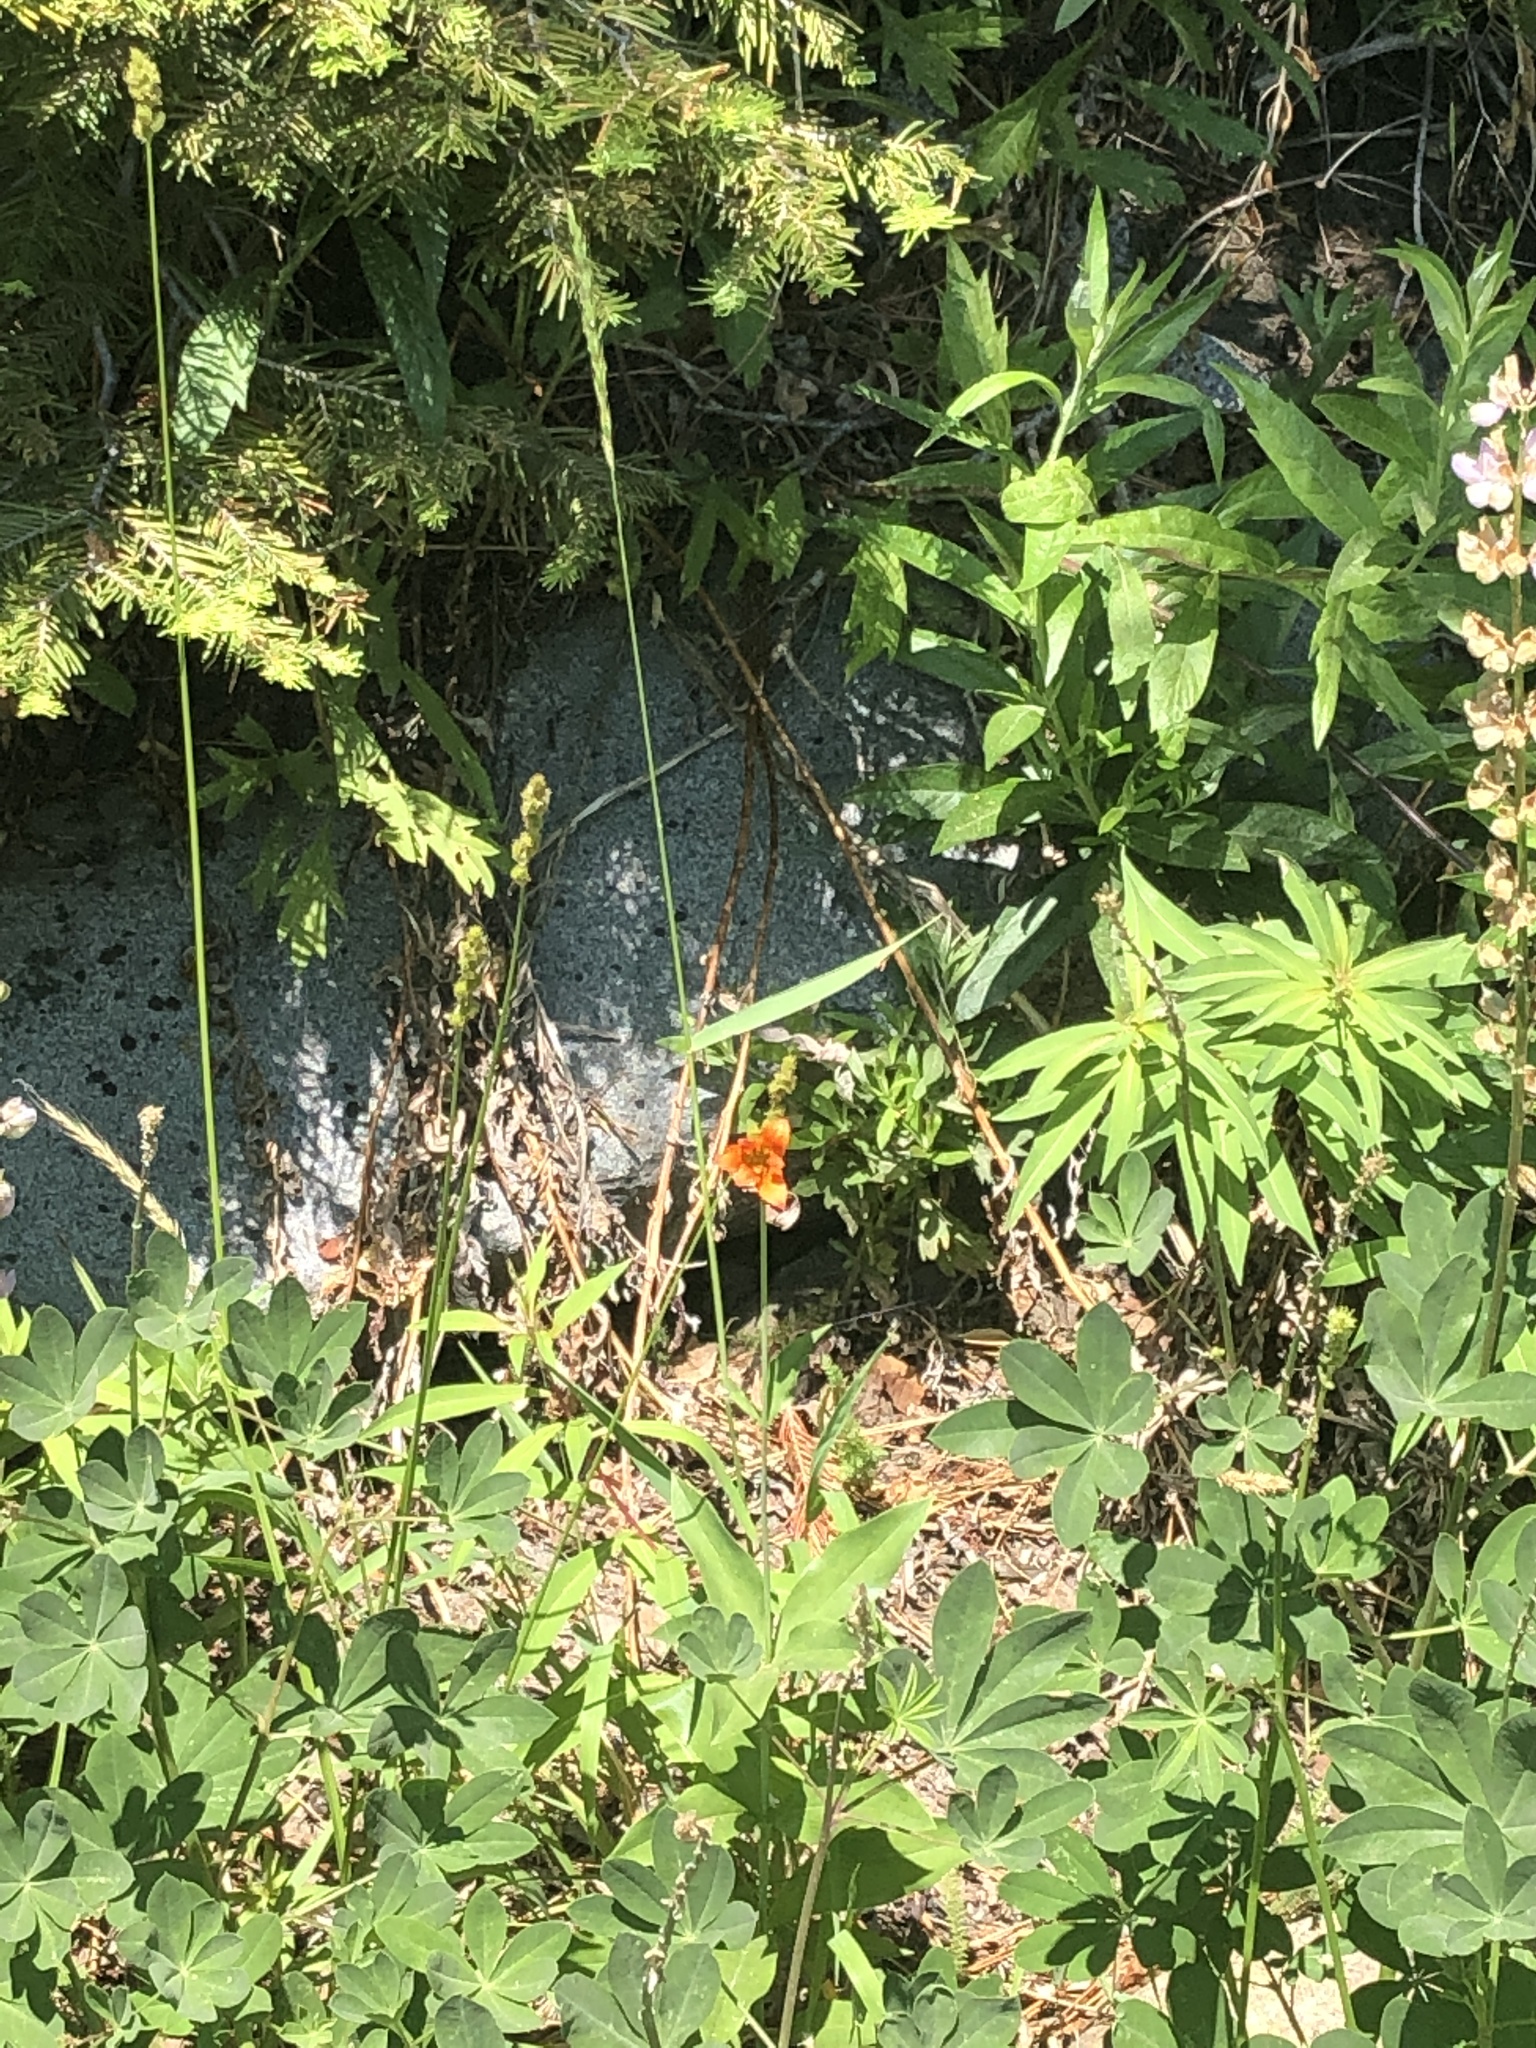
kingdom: Plantae
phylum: Tracheophyta
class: Liliopsida
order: Liliales
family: Liliaceae
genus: Lilium
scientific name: Lilium parvum
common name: Alpine lily
